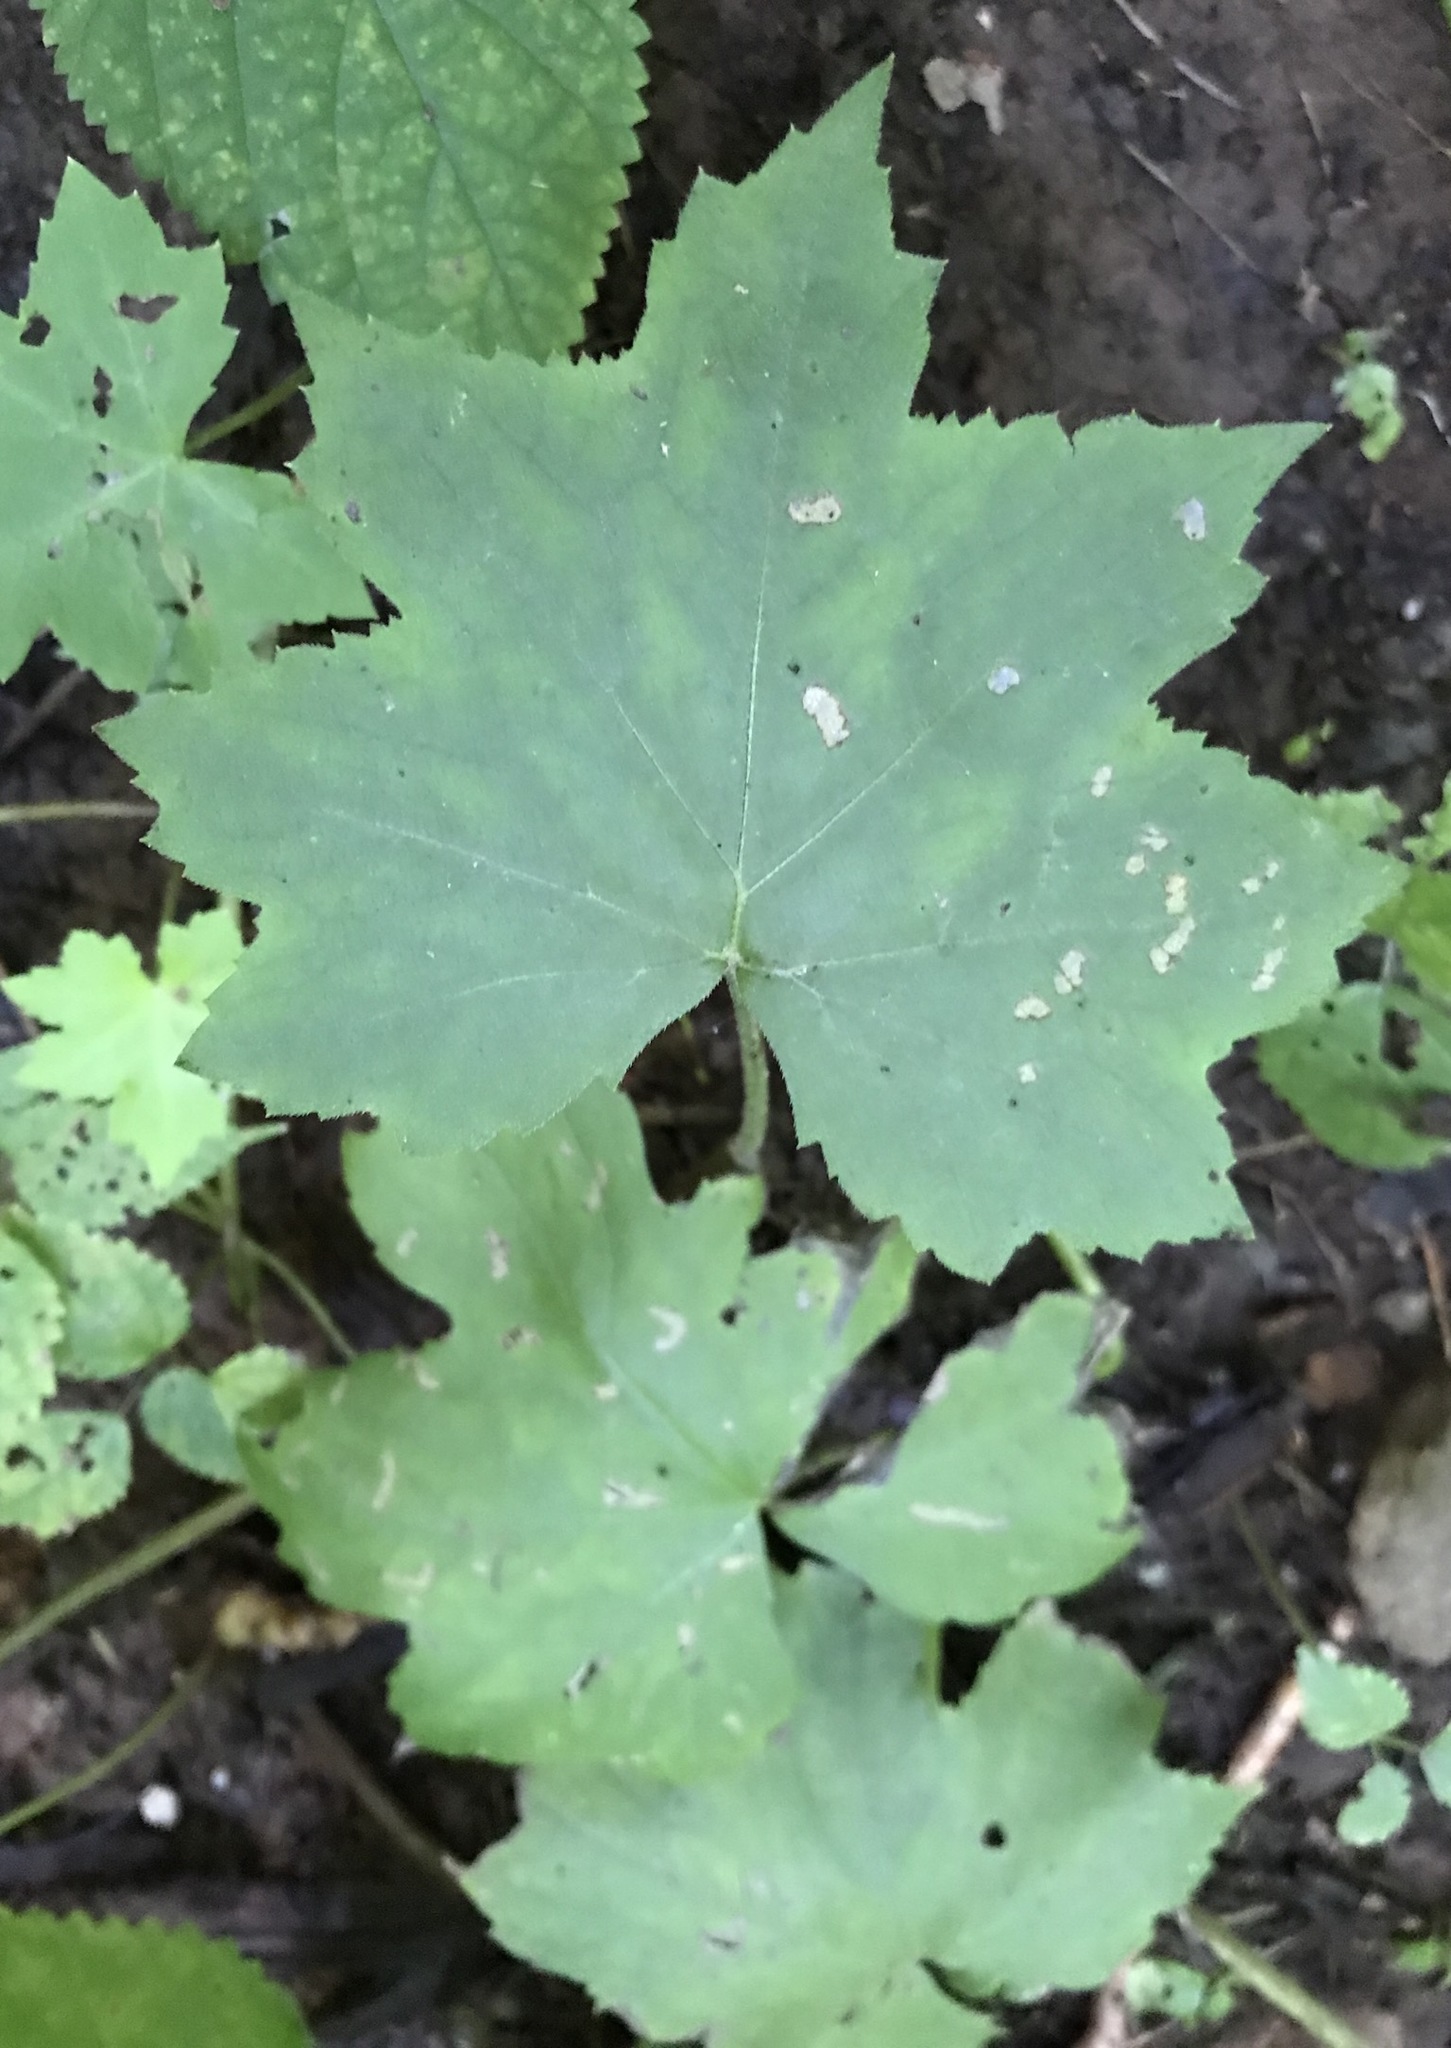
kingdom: Plantae
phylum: Tracheophyta
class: Magnoliopsida
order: Boraginales
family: Hydrophyllaceae
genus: Hydrophyllum
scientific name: Hydrophyllum canadense
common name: Canada waterleaf
